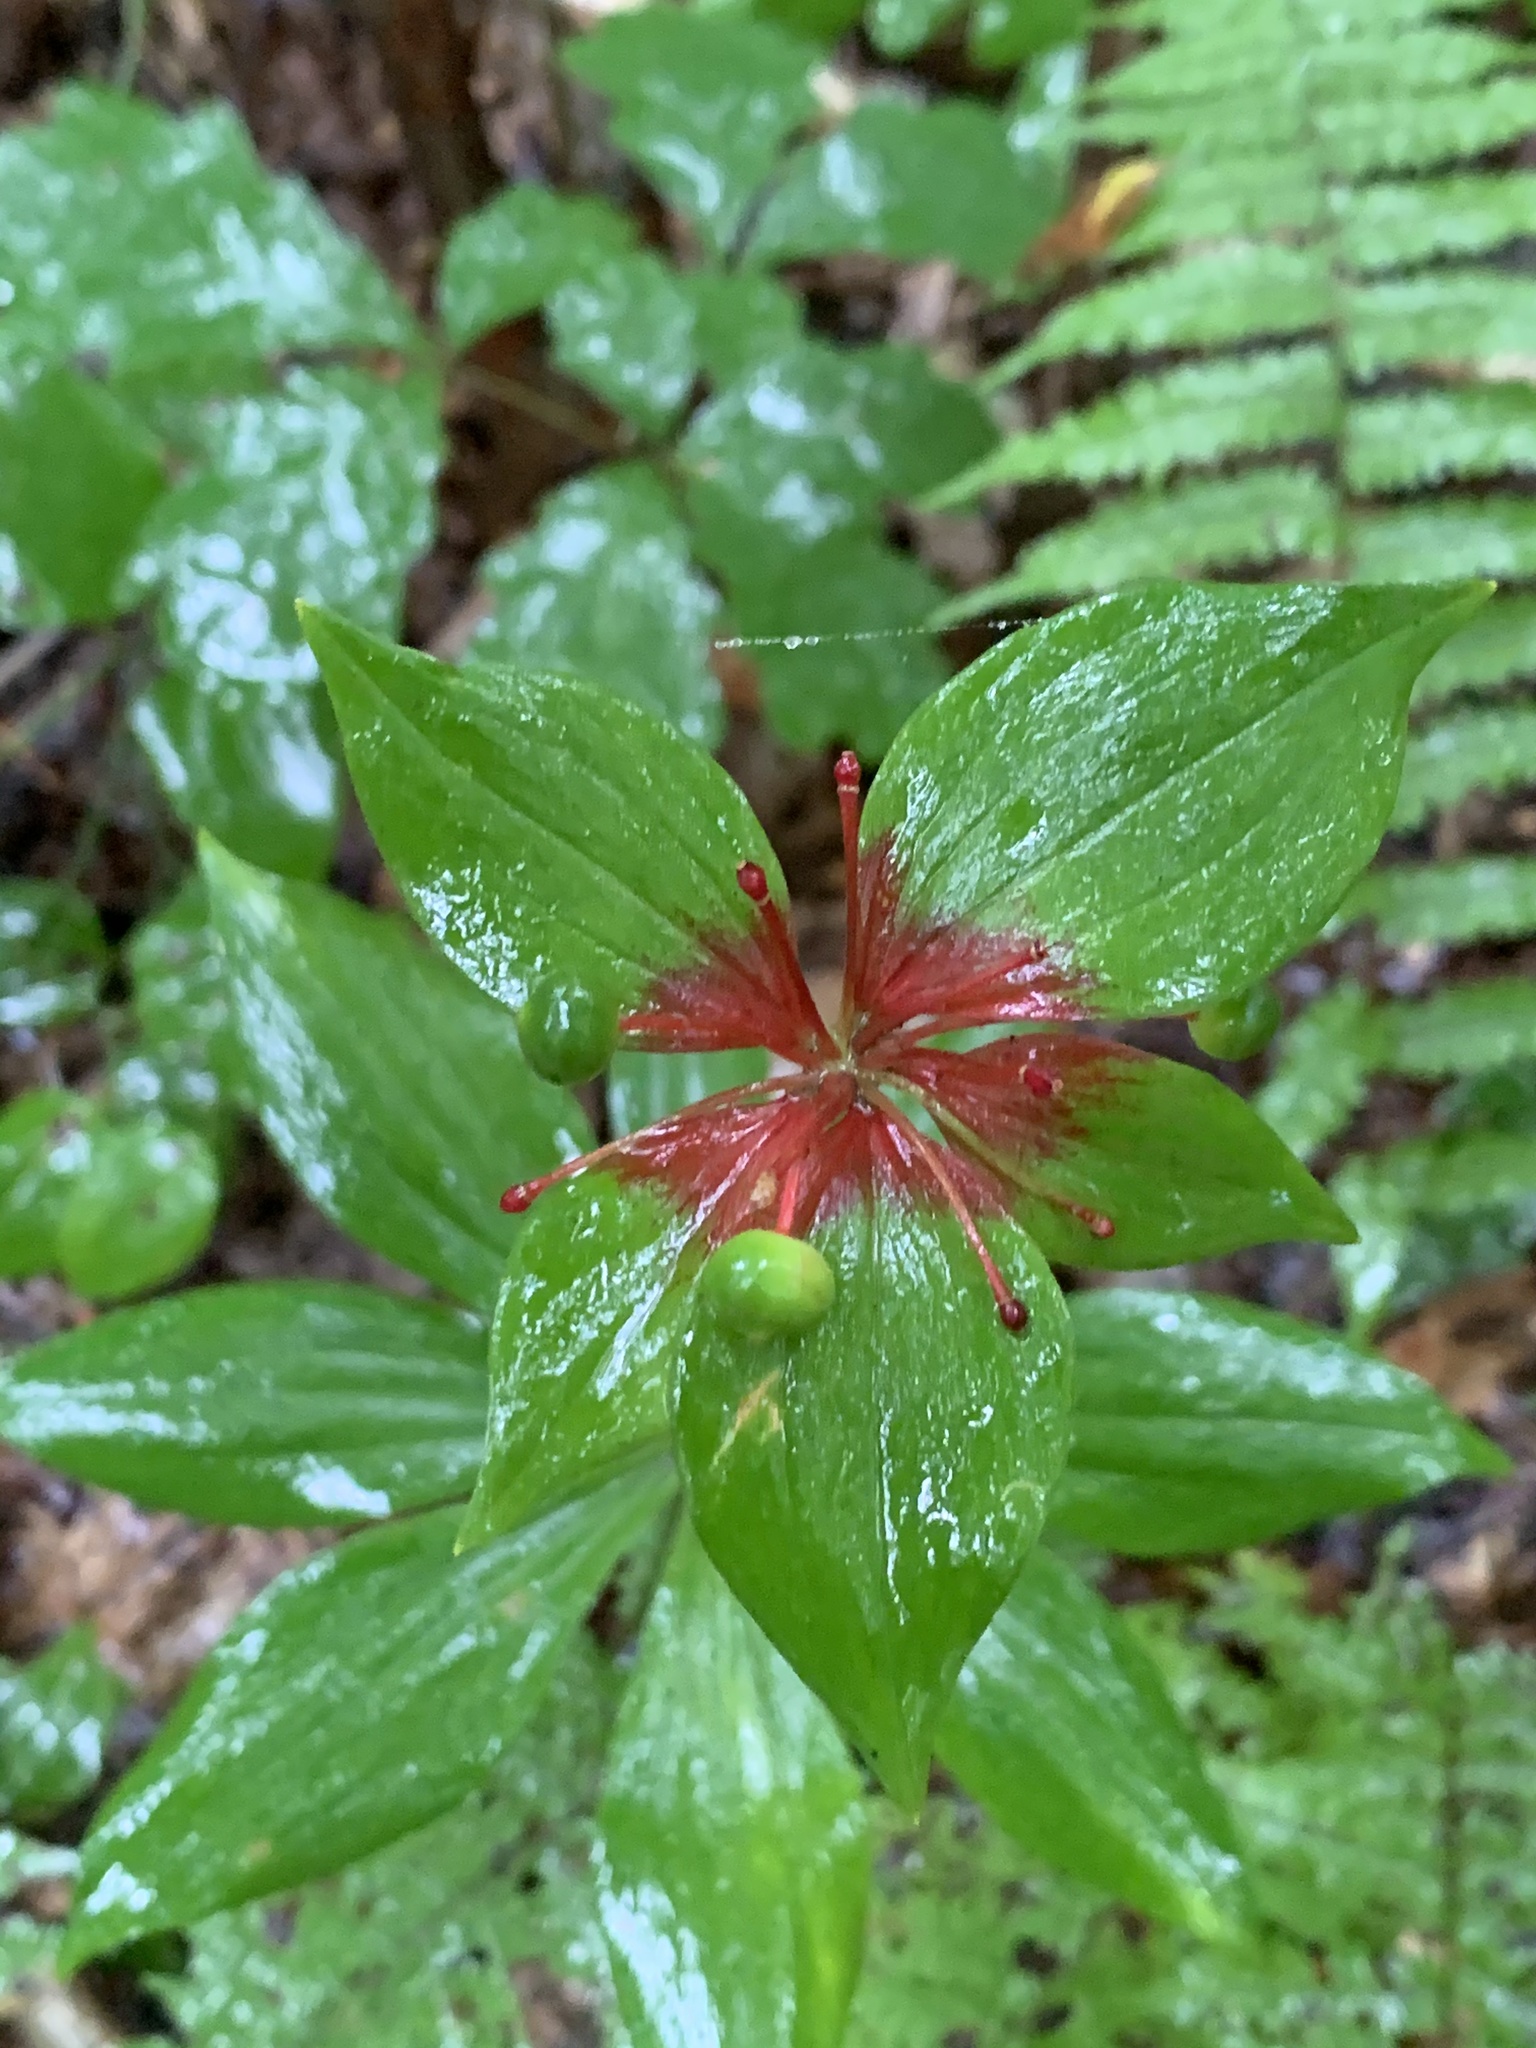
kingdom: Plantae
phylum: Tracheophyta
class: Liliopsida
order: Liliales
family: Liliaceae
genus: Medeola
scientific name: Medeola virginiana
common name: Indian cucumber-root
